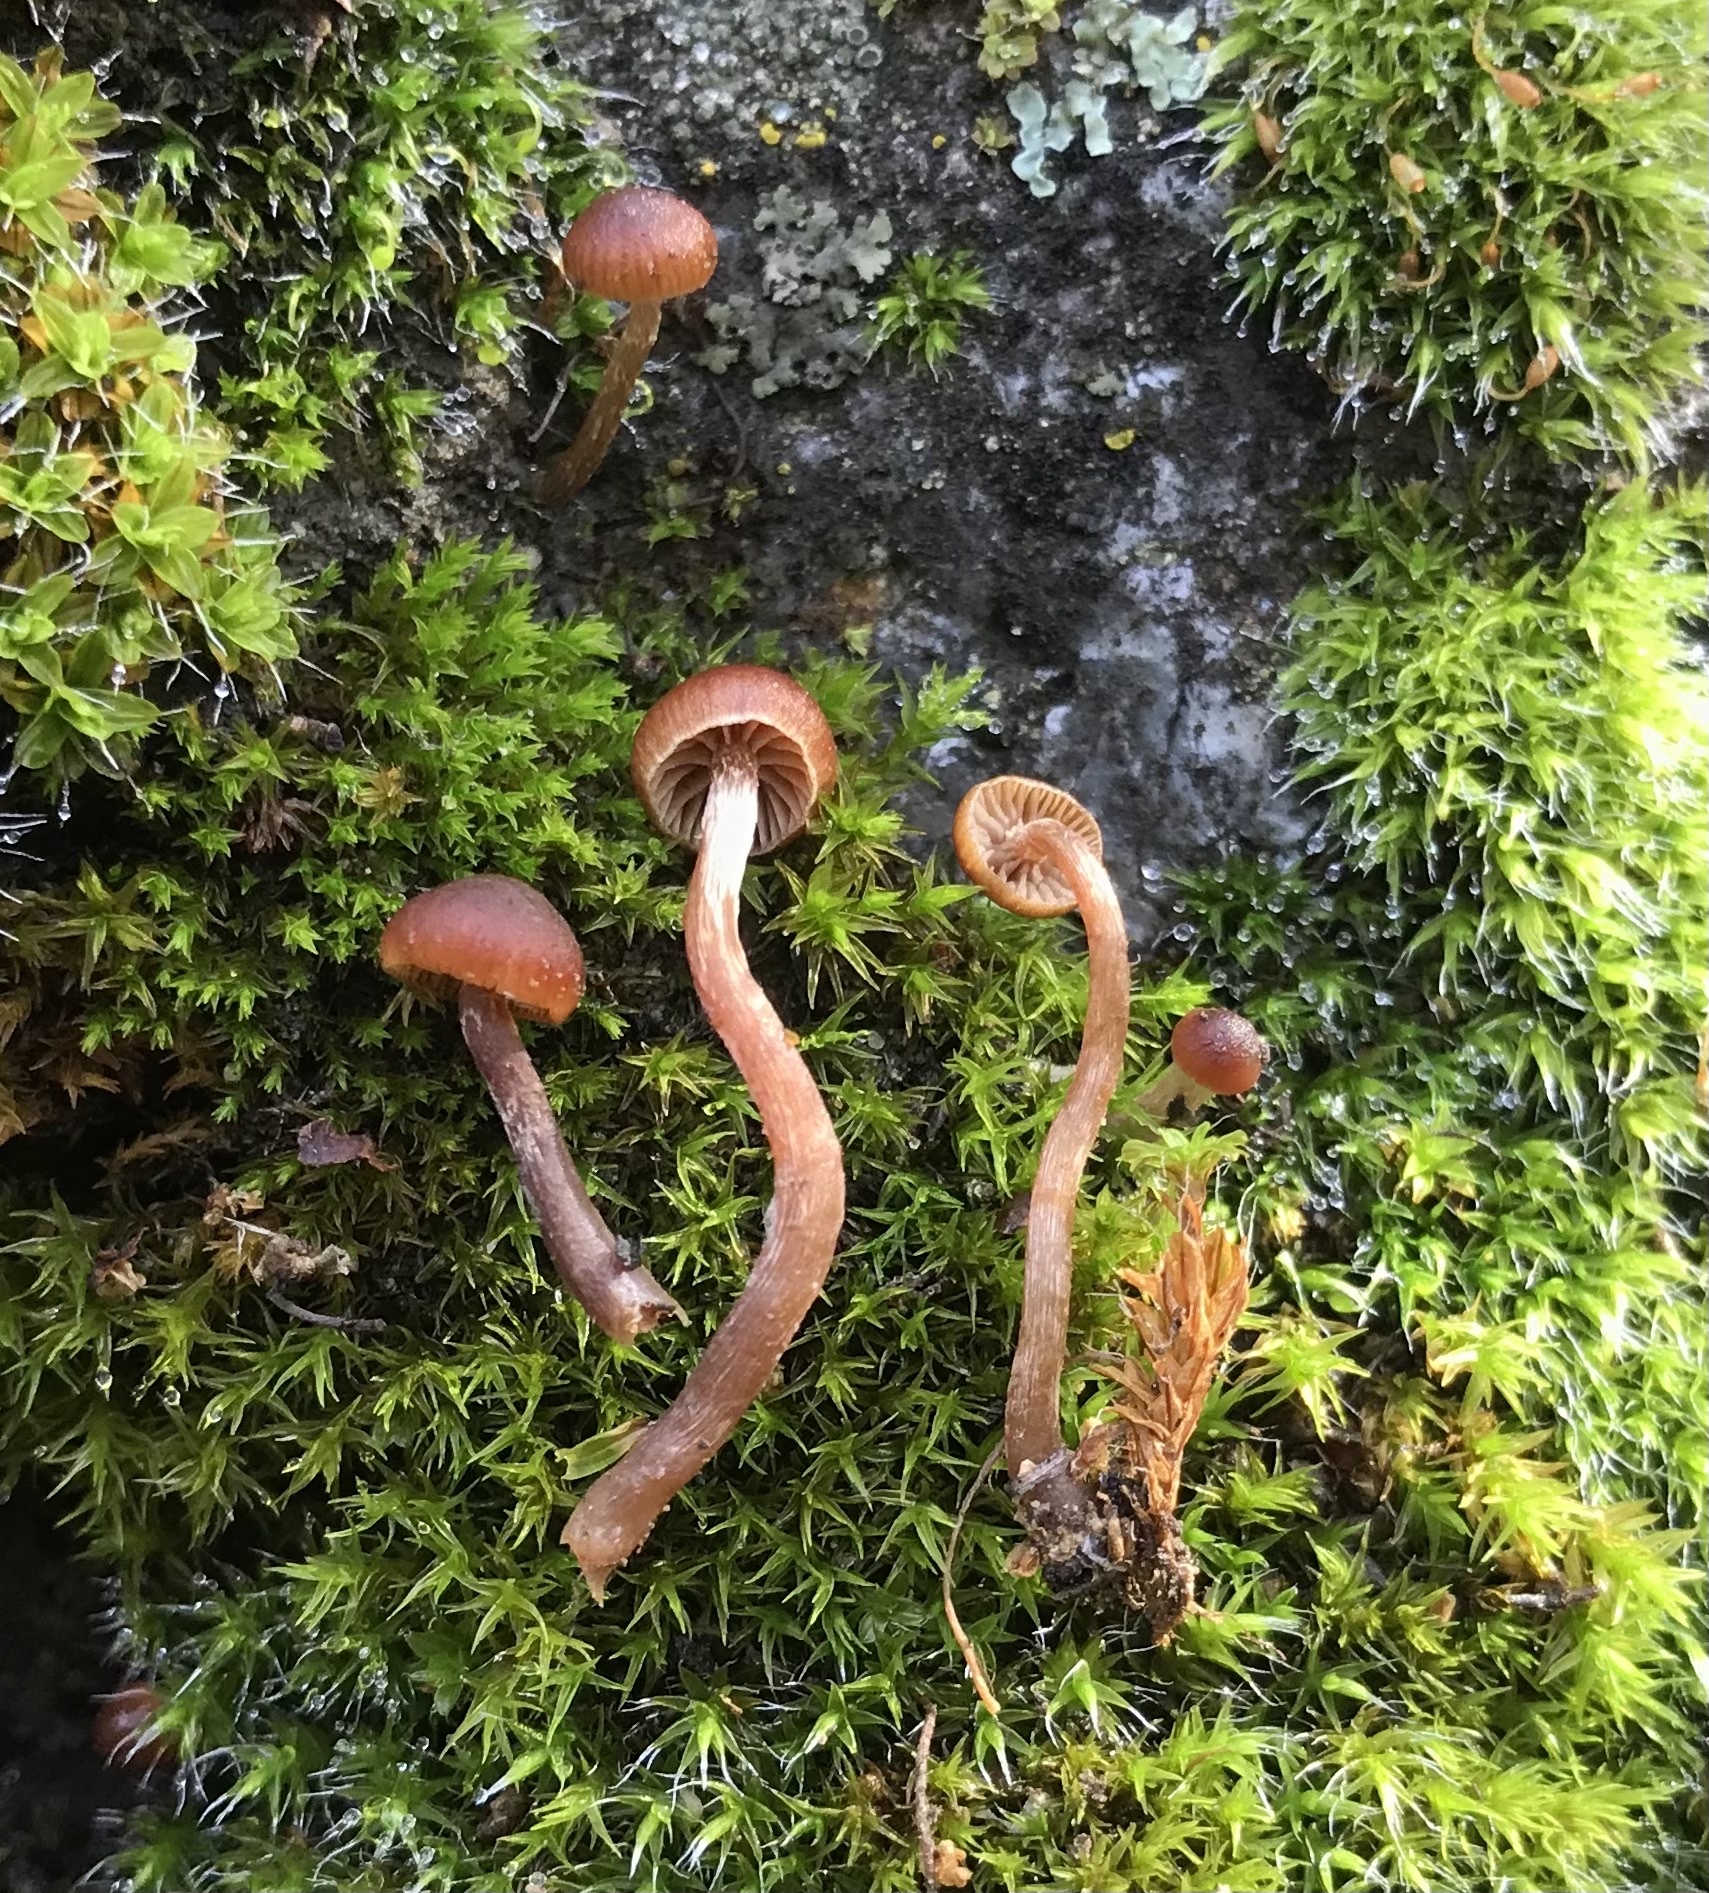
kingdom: Fungi
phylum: Basidiomycota
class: Agaricomycetes
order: Agaricales
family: Strophariaceae
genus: Deconica
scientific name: Deconica montana
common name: Mountain moss deconica
